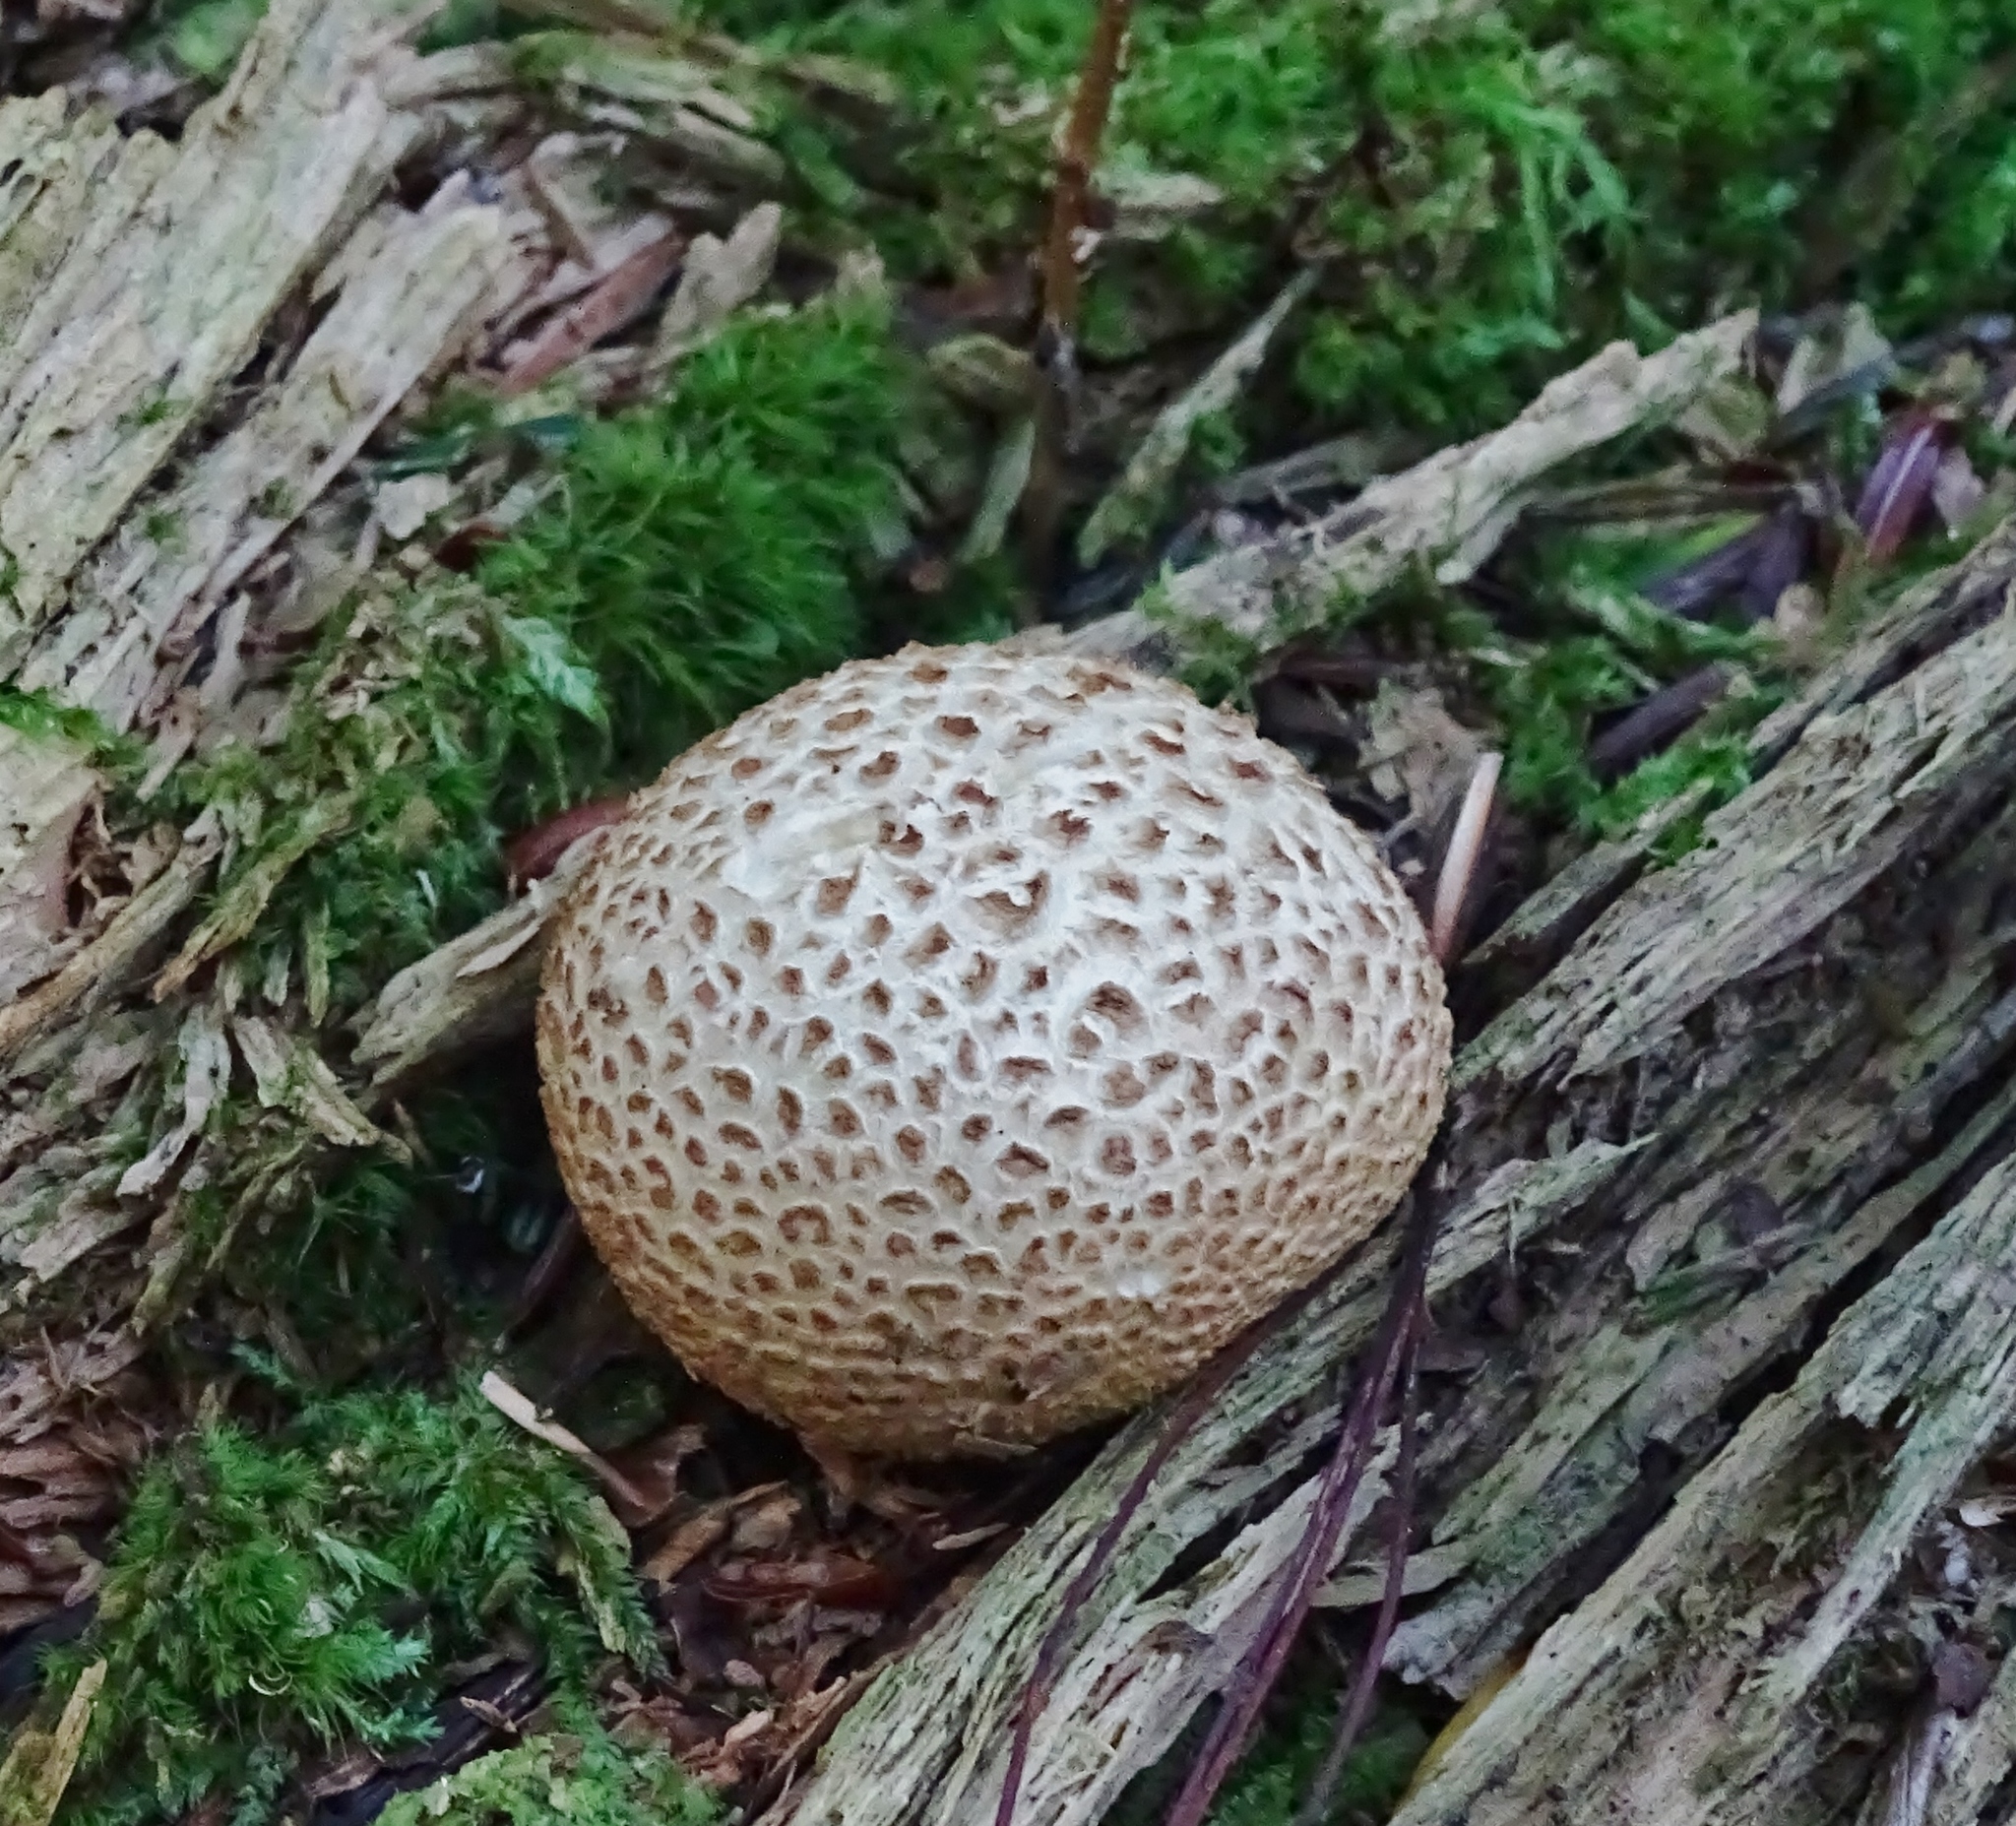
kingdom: Fungi
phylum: Basidiomycota
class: Agaricomycetes
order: Boletales
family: Sclerodermataceae
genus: Scleroderma
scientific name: Scleroderma citrinum
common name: Common earthball
